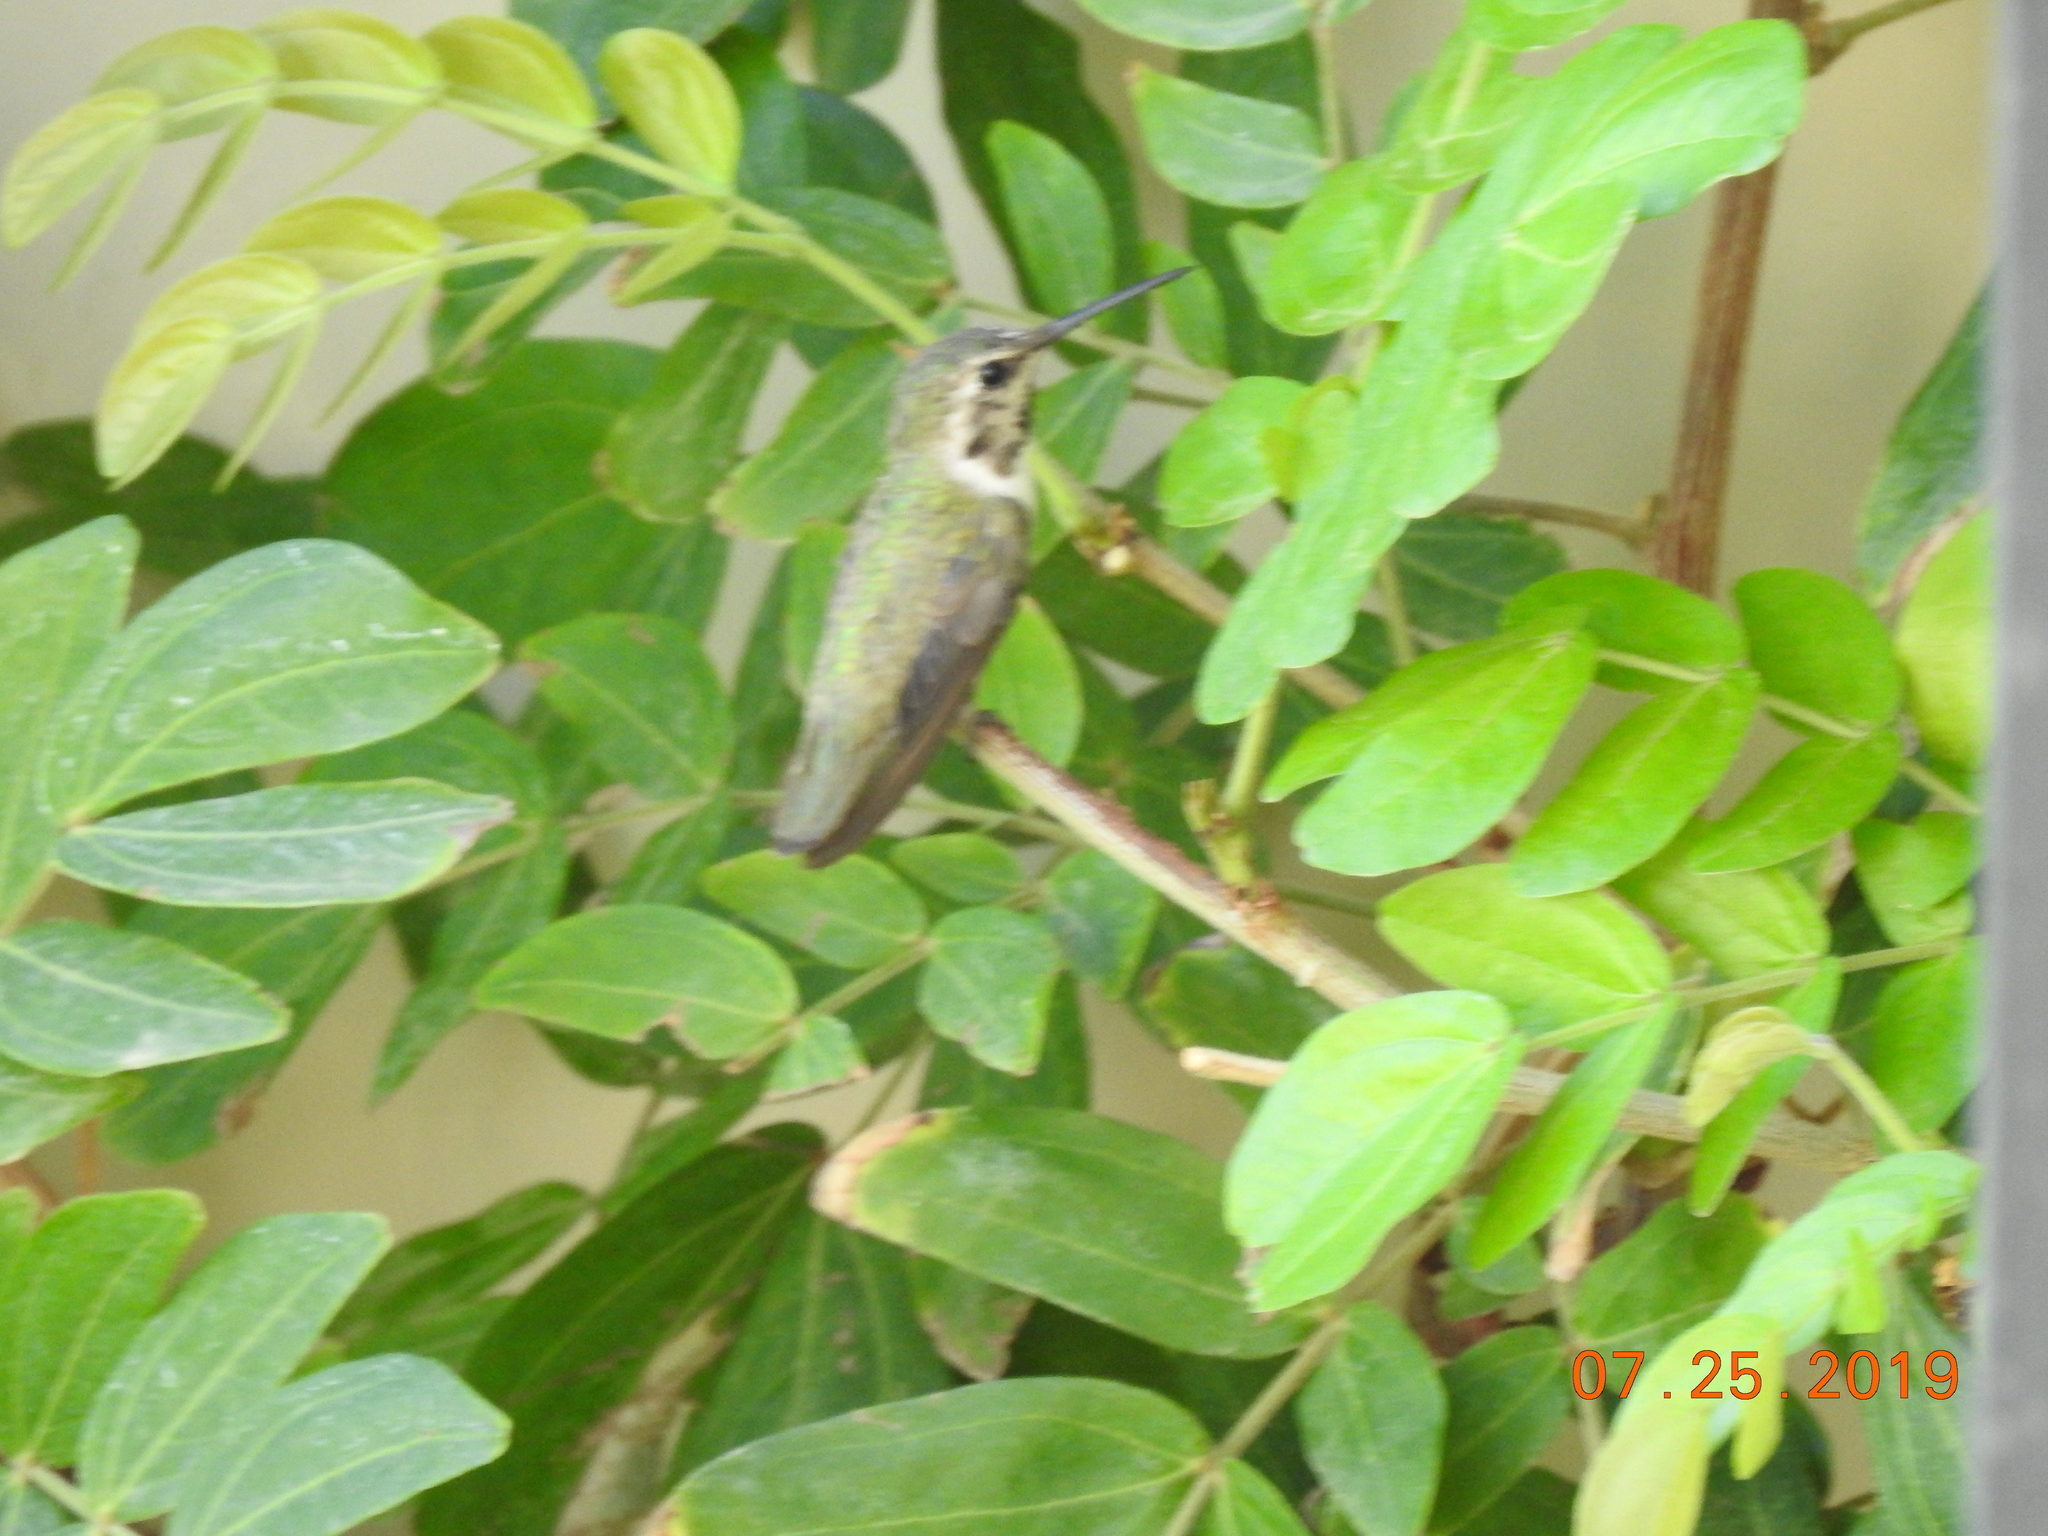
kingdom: Animalia
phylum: Chordata
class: Aves
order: Apodiformes
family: Trochilidae
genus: Calypte
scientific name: Calypte costae
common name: Costa's hummingbird
